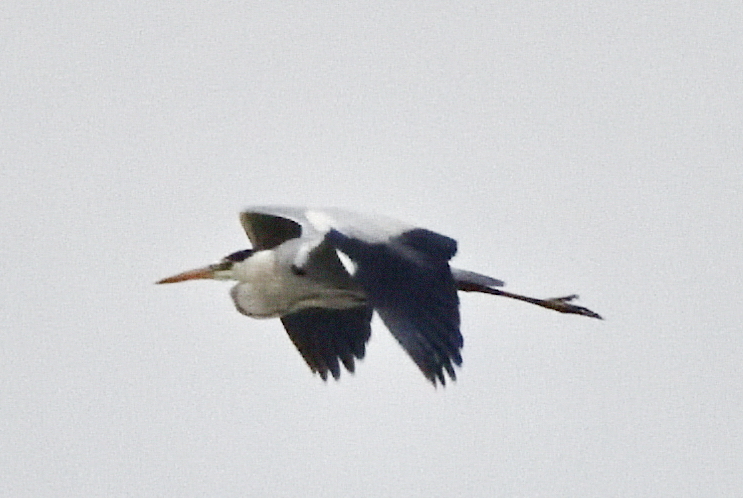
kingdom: Animalia
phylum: Chordata
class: Aves
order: Pelecaniformes
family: Ardeidae
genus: Ardea
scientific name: Ardea cinerea
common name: Grey heron
